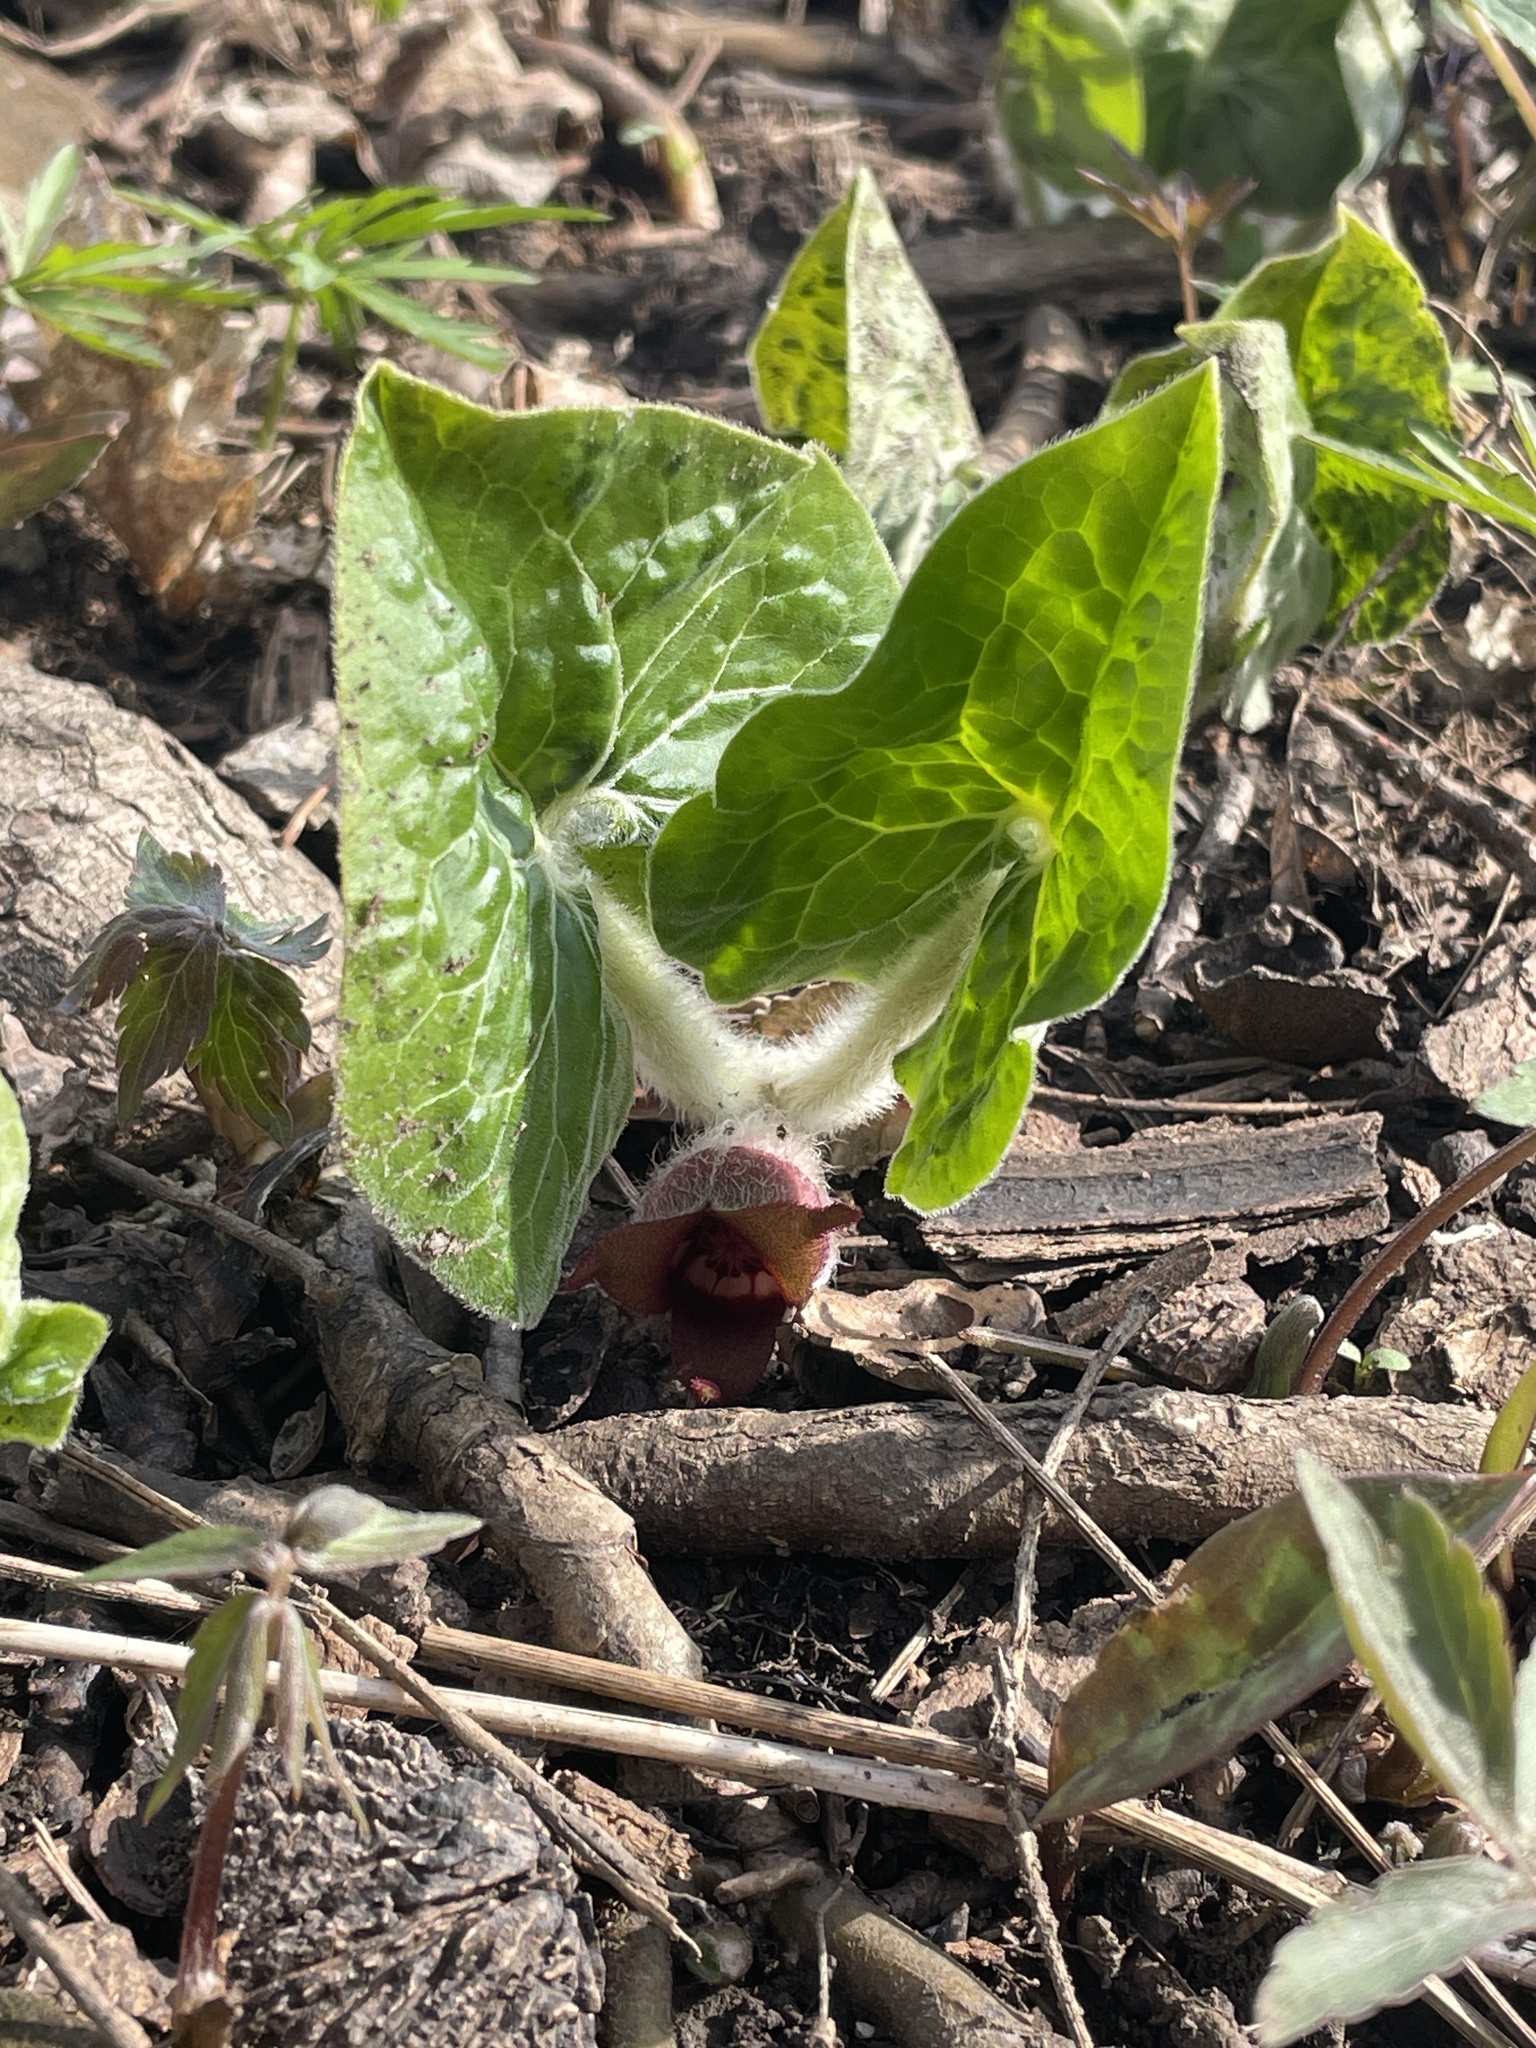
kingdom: Plantae
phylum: Tracheophyta
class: Magnoliopsida
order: Piperales
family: Aristolochiaceae
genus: Asarum
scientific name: Asarum canadense
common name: Wild ginger
